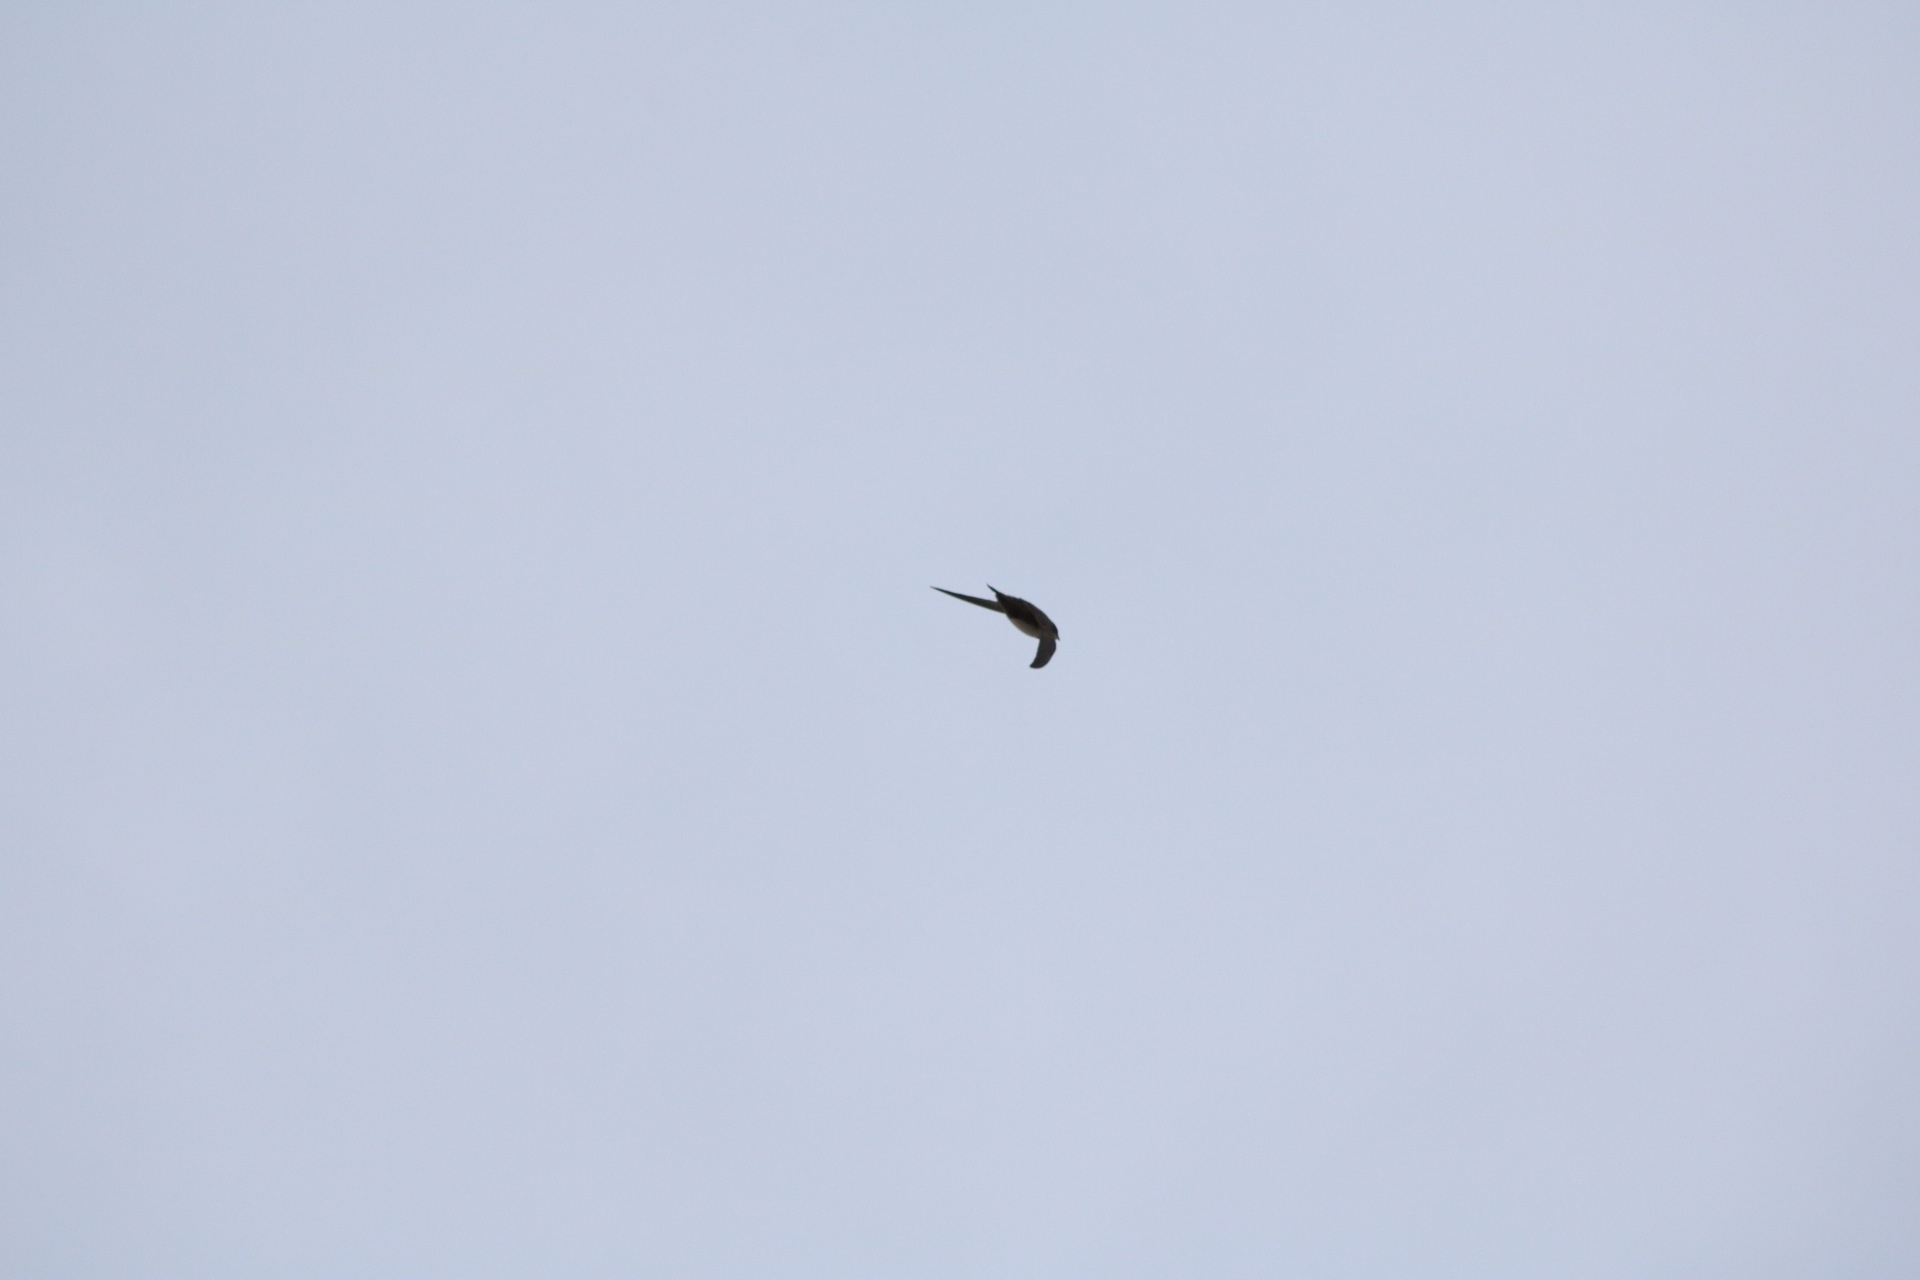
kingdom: Animalia
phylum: Chordata
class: Aves
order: Apodiformes
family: Apodidae
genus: Tachymarptis
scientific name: Tachymarptis melba
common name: Alpine swift
